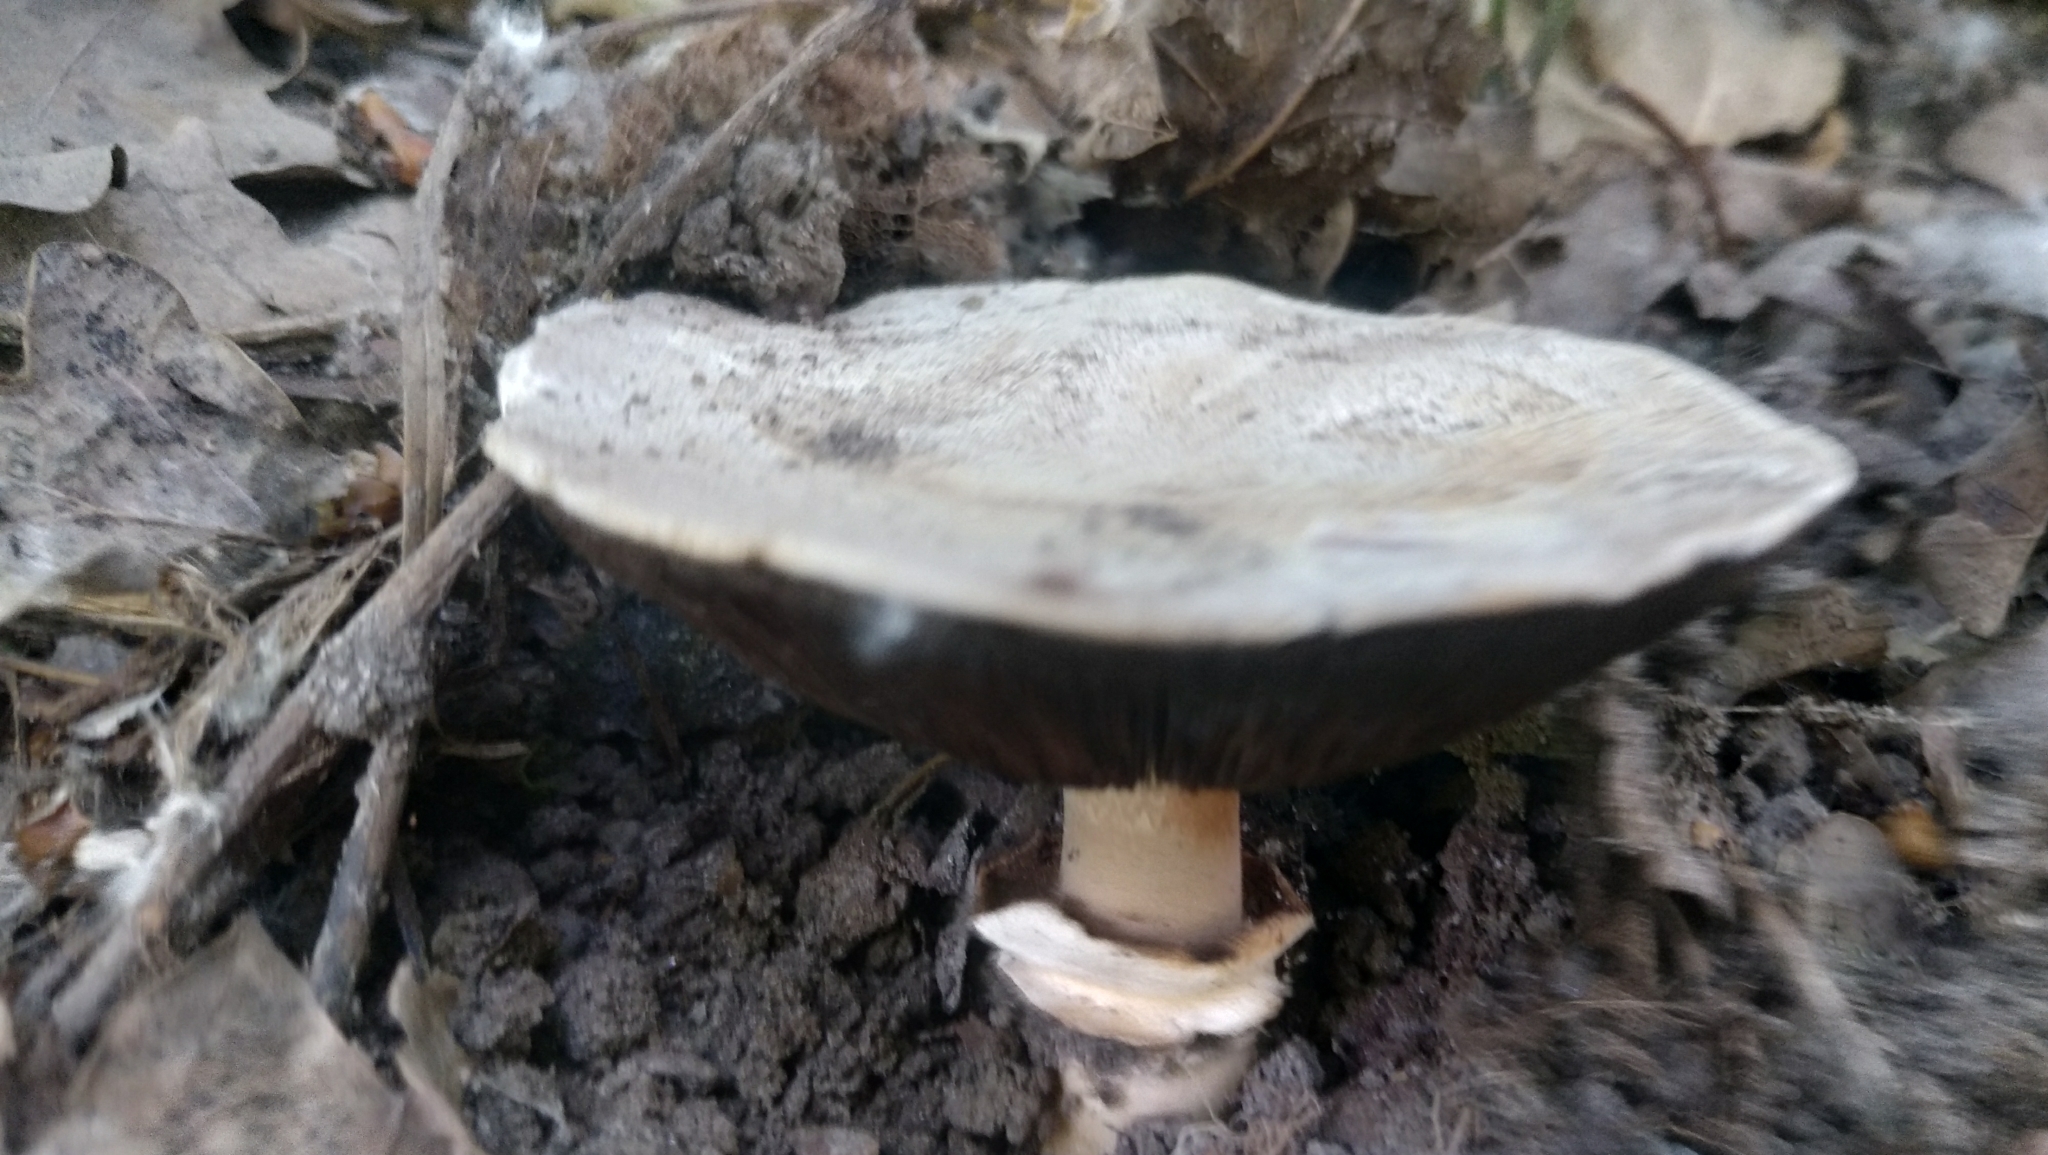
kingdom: Fungi
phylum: Basidiomycota
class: Agaricomycetes
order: Agaricales
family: Agaricaceae
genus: Agaricus
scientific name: Agaricus campestris
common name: Field mushroom
